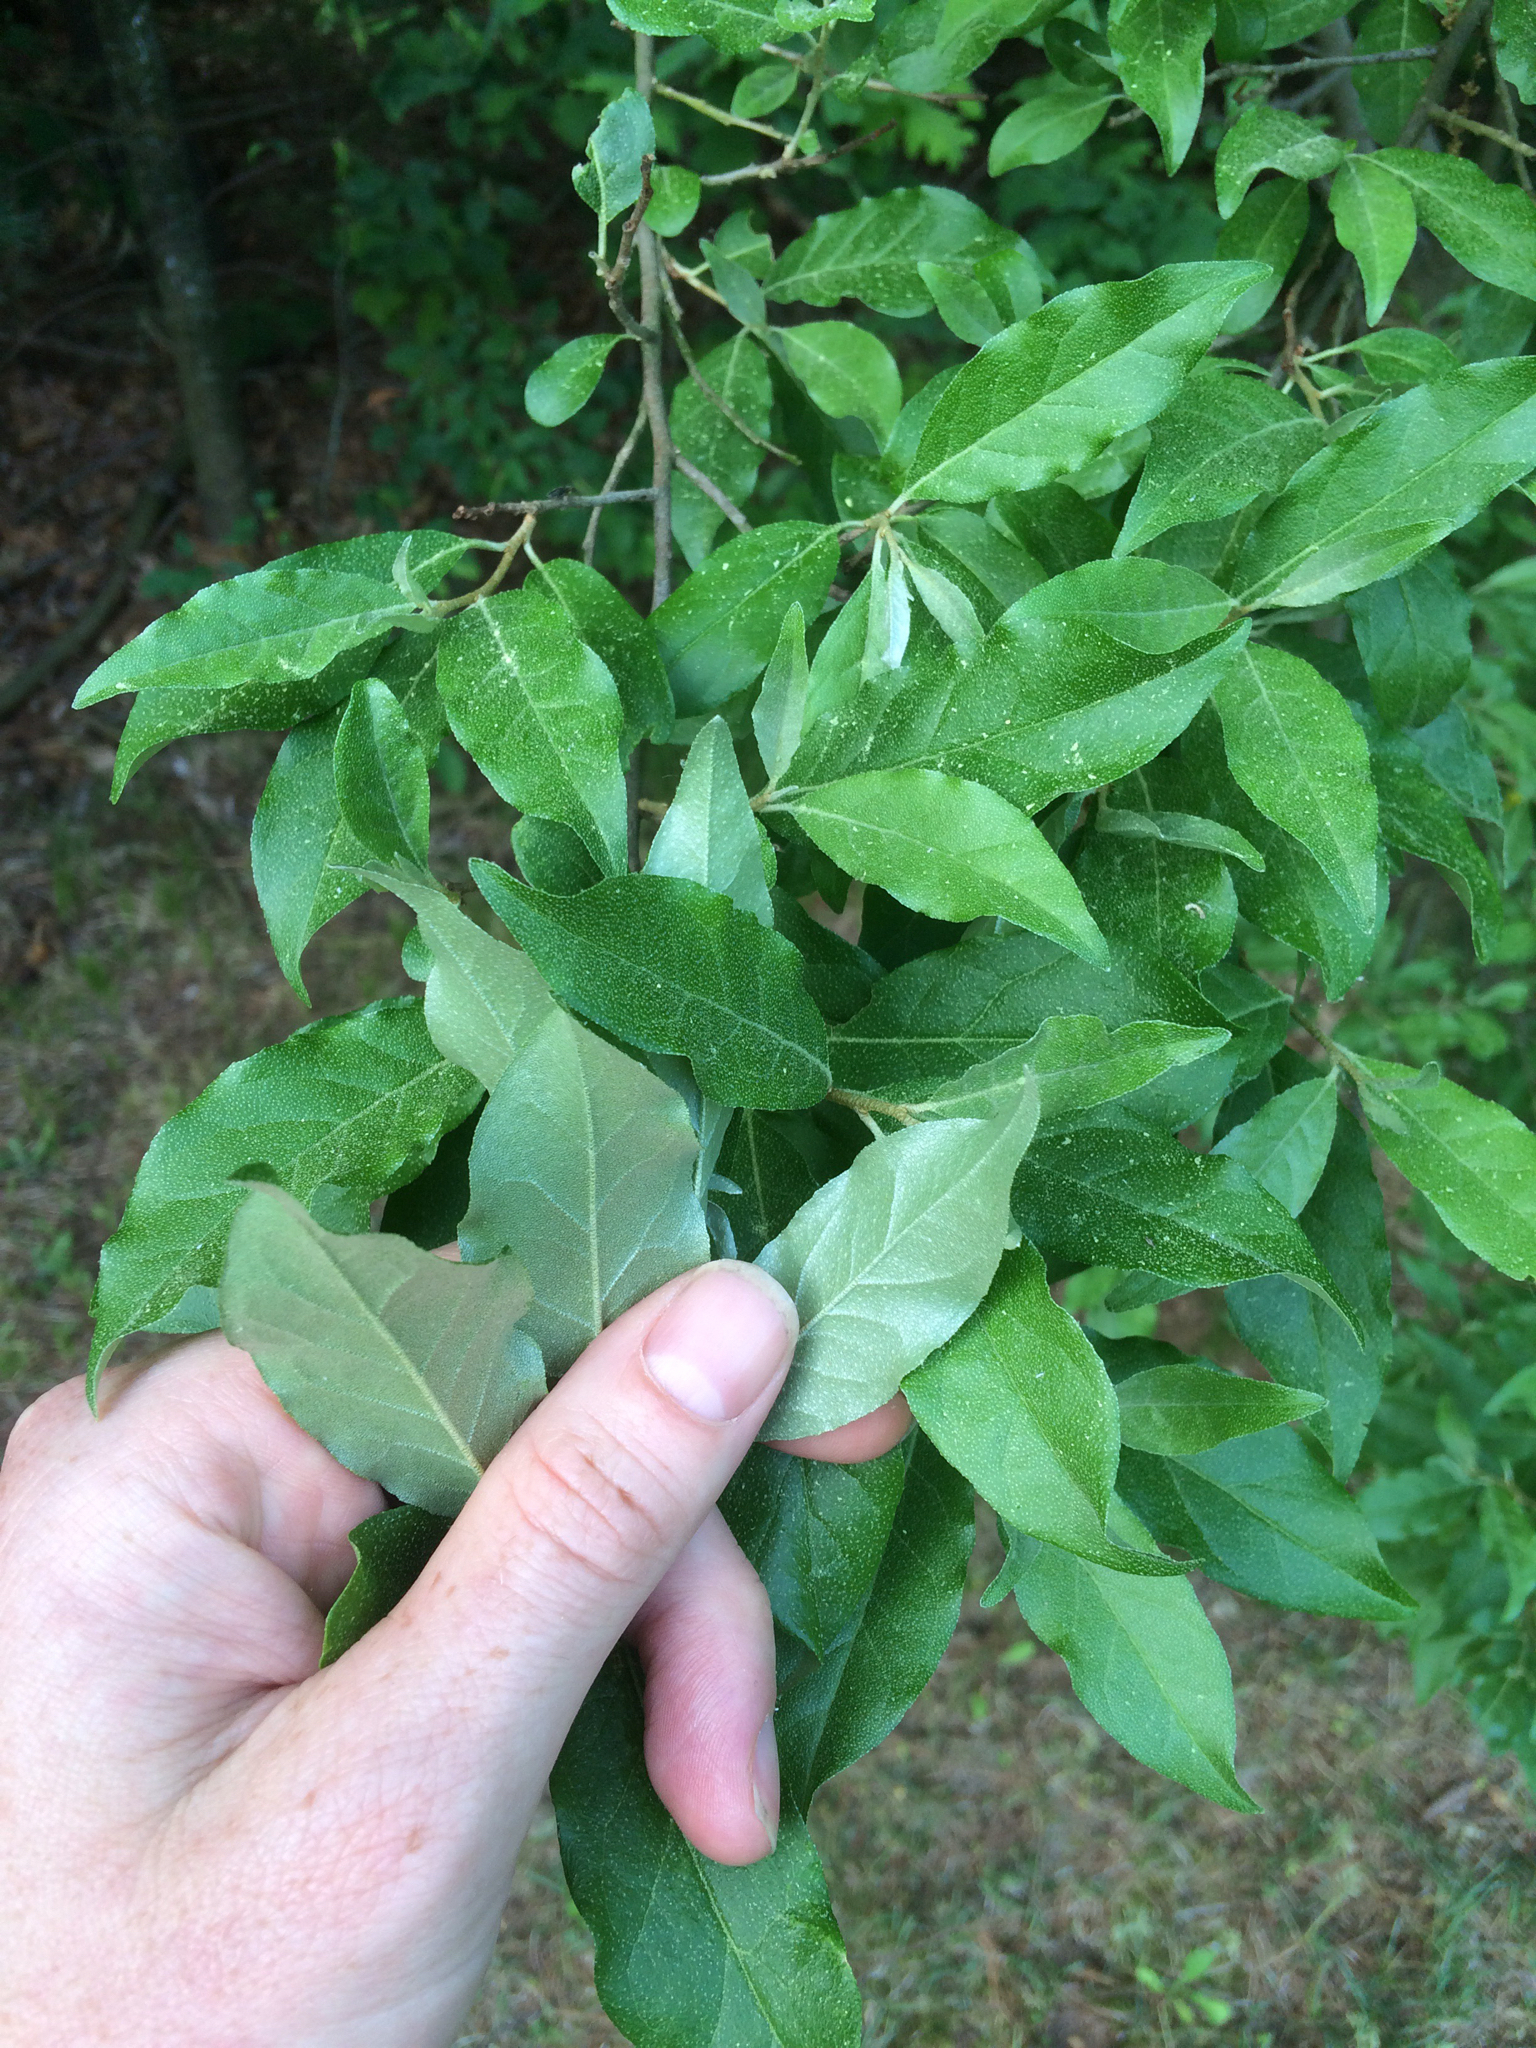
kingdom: Plantae
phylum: Tracheophyta
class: Magnoliopsida
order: Rosales
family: Elaeagnaceae
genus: Elaeagnus
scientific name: Elaeagnus umbellata
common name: Autumn olive
